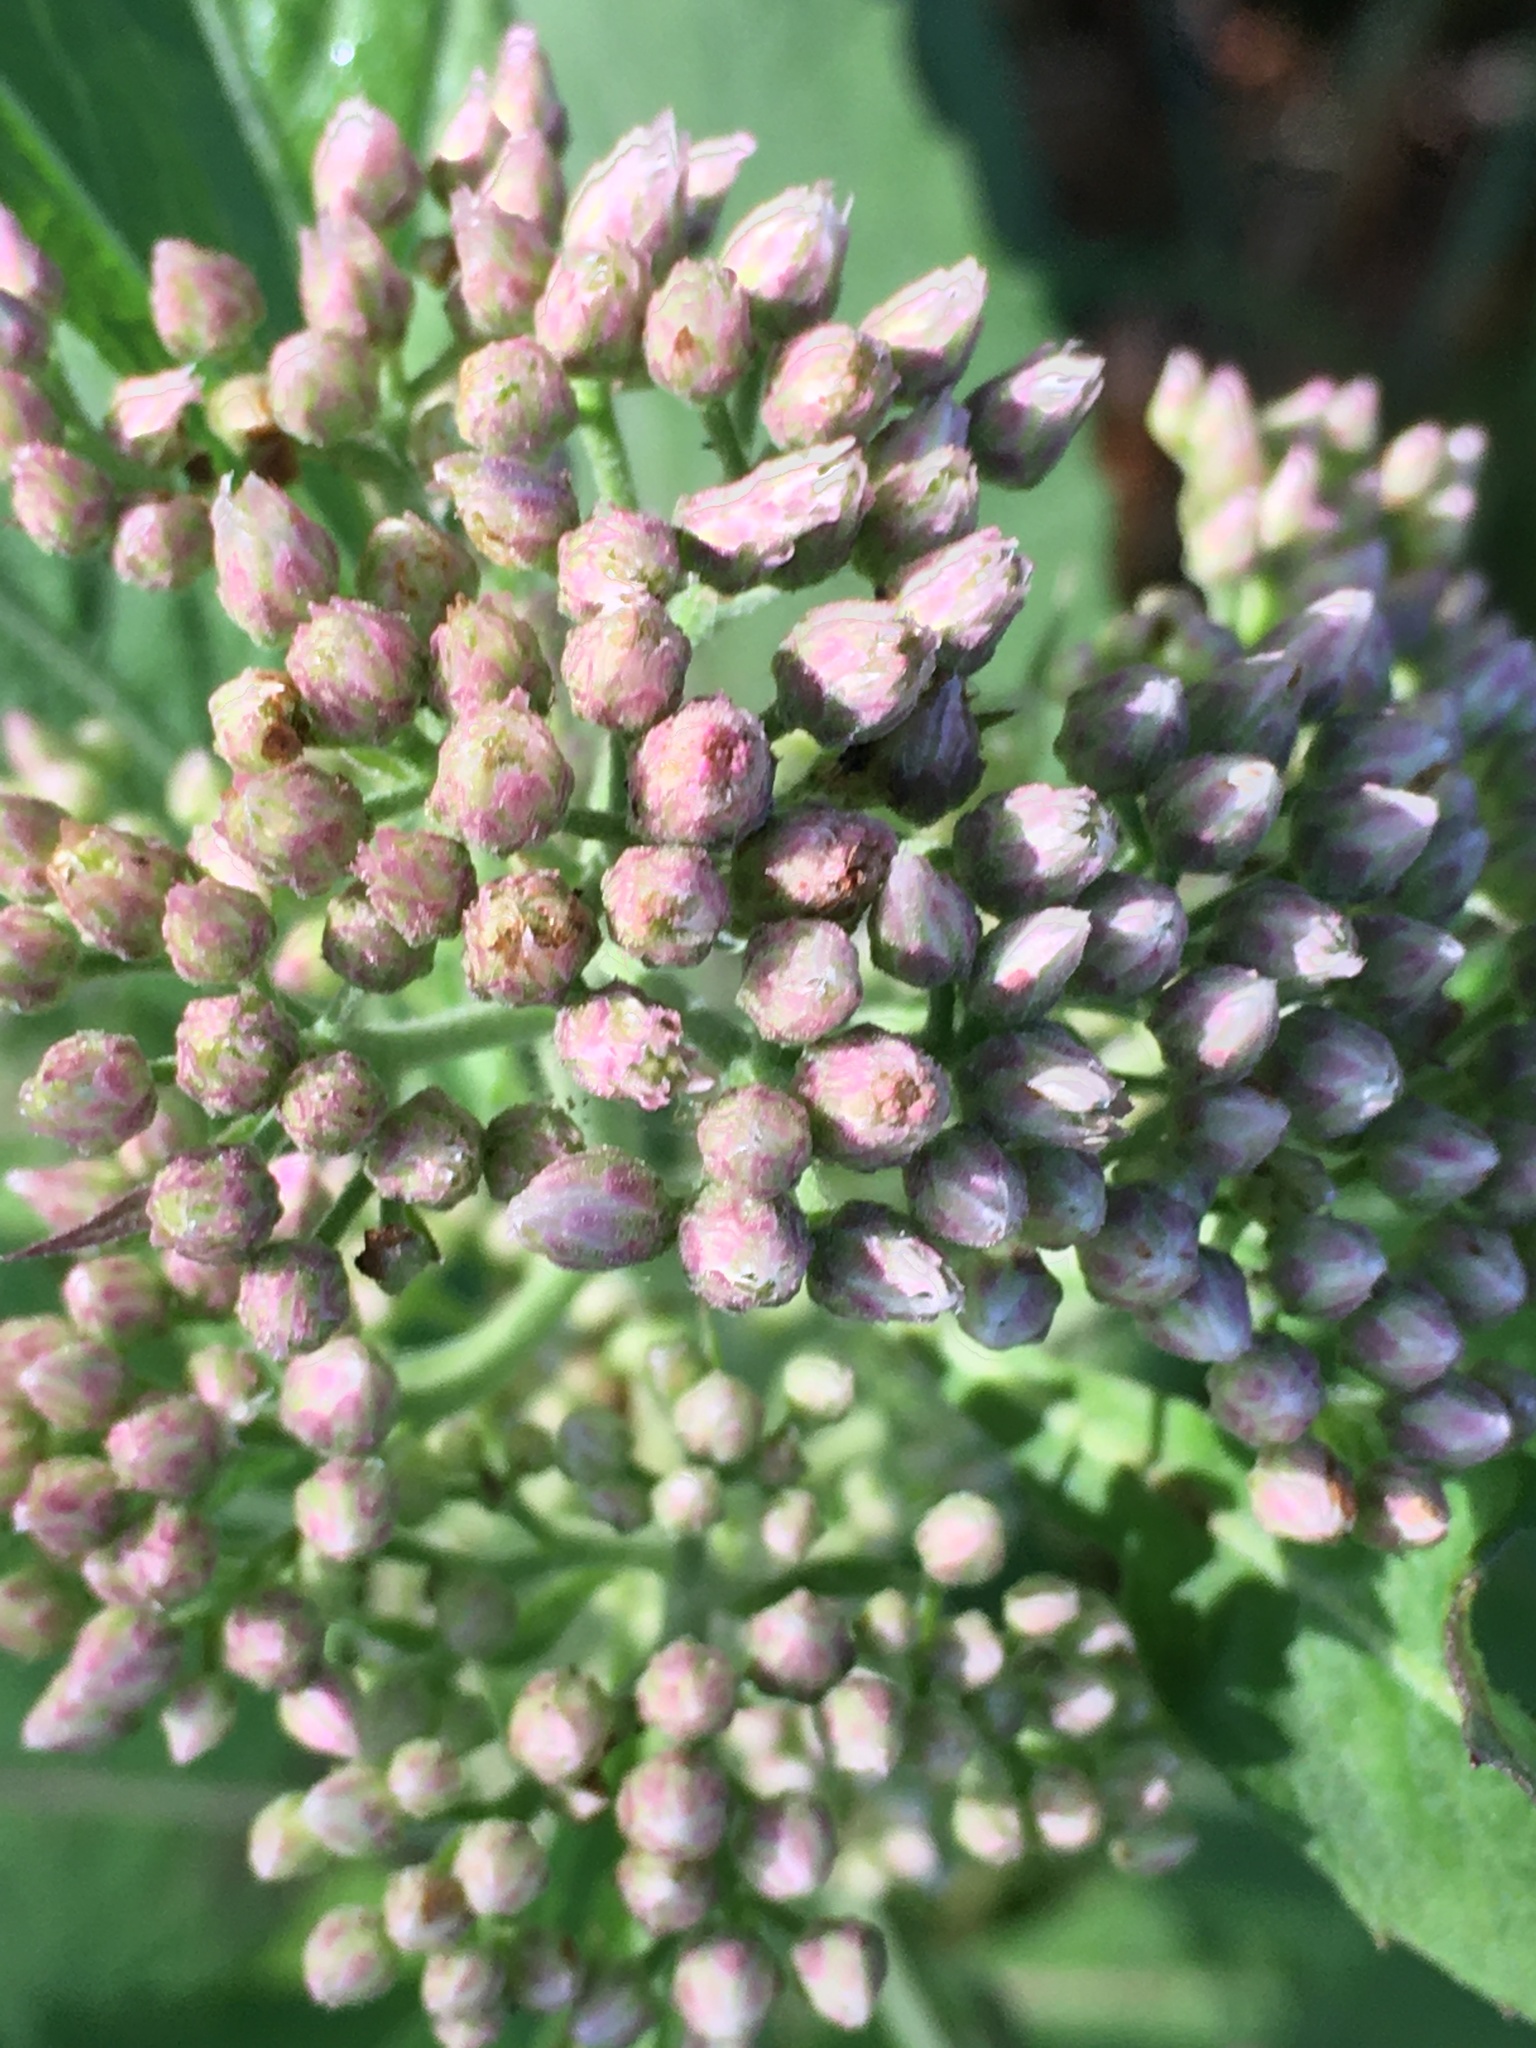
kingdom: Plantae
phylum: Tracheophyta
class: Magnoliopsida
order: Asterales
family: Asteraceae
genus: Pluchea
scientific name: Pluchea camphorata
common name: Camphor pluchea
